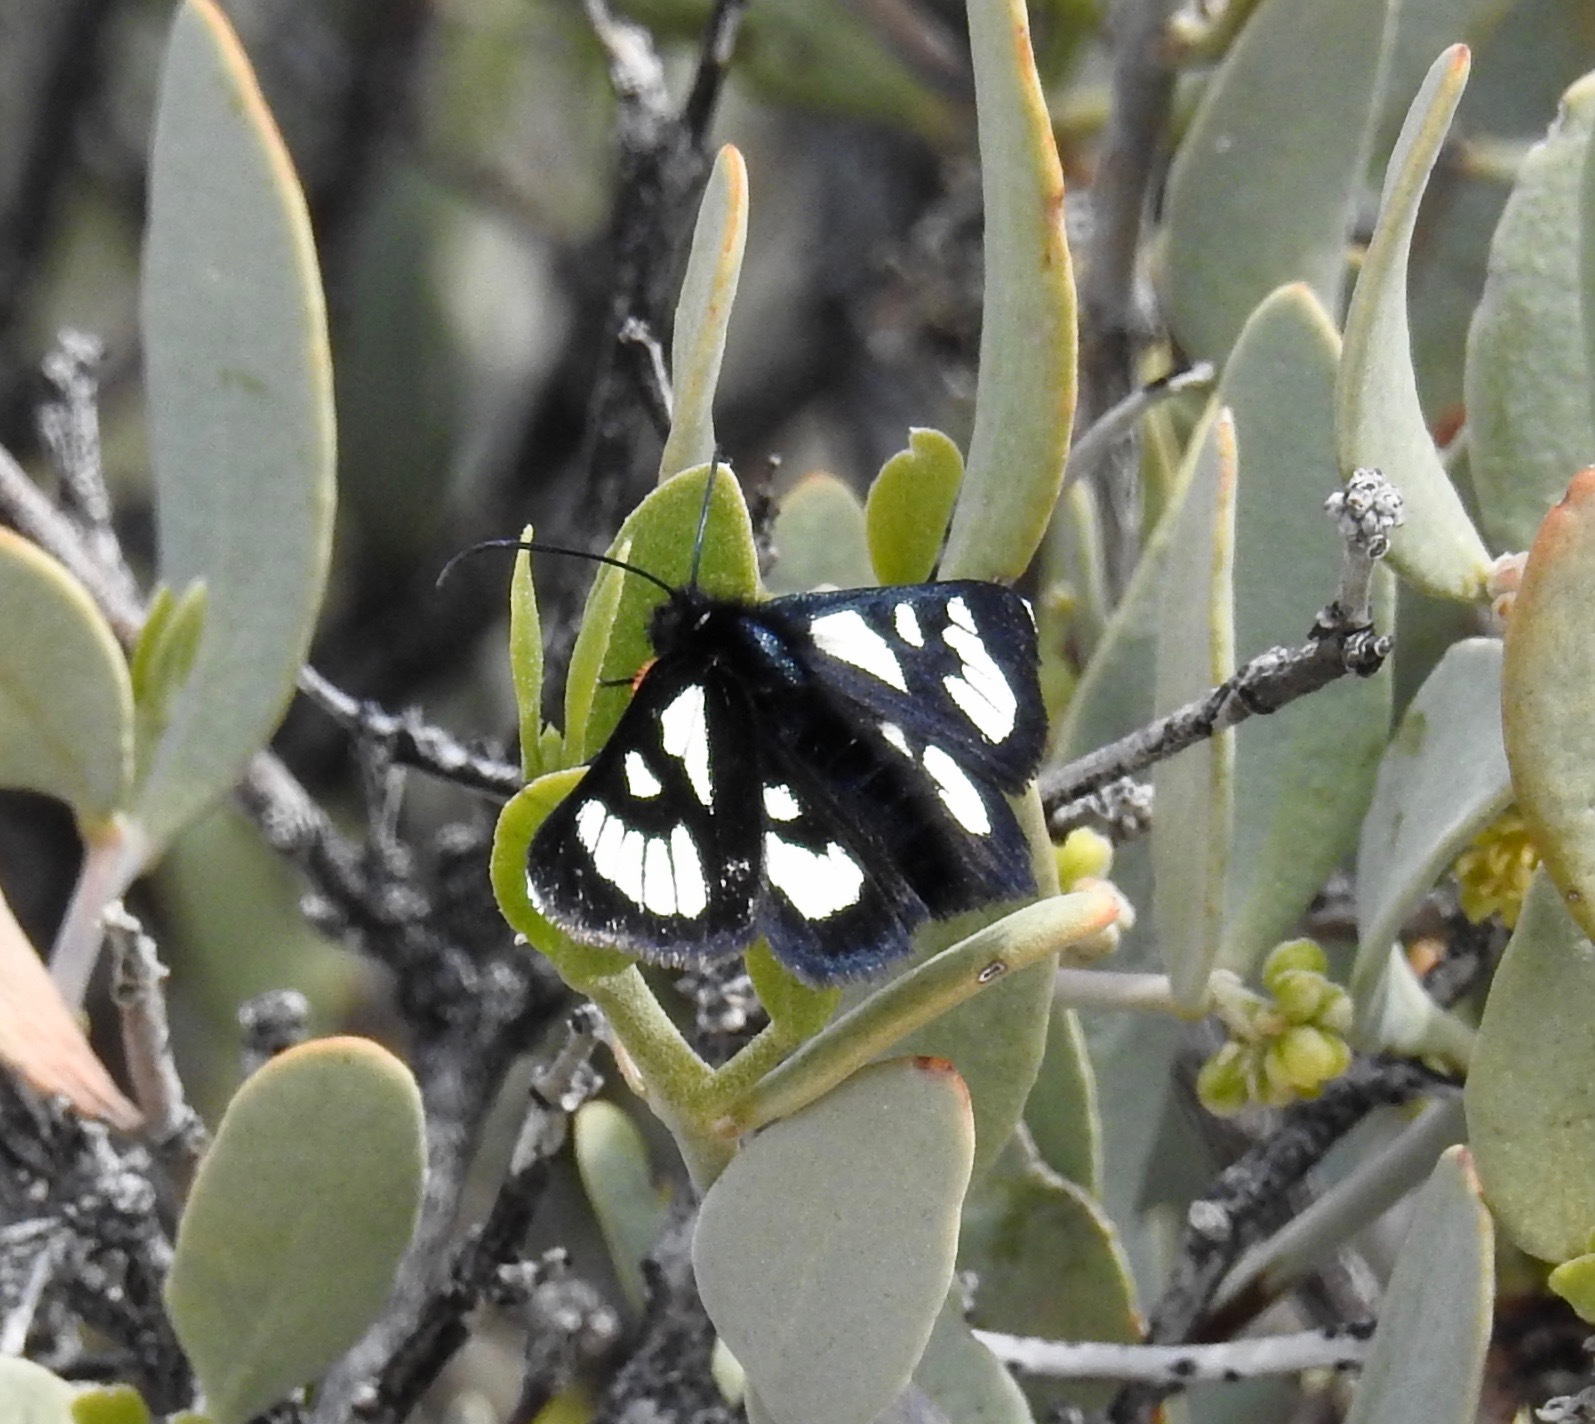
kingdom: Animalia
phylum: Arthropoda
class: Insecta
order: Lepidoptera
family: Noctuidae
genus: Alypia
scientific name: Alypia ridingsii
